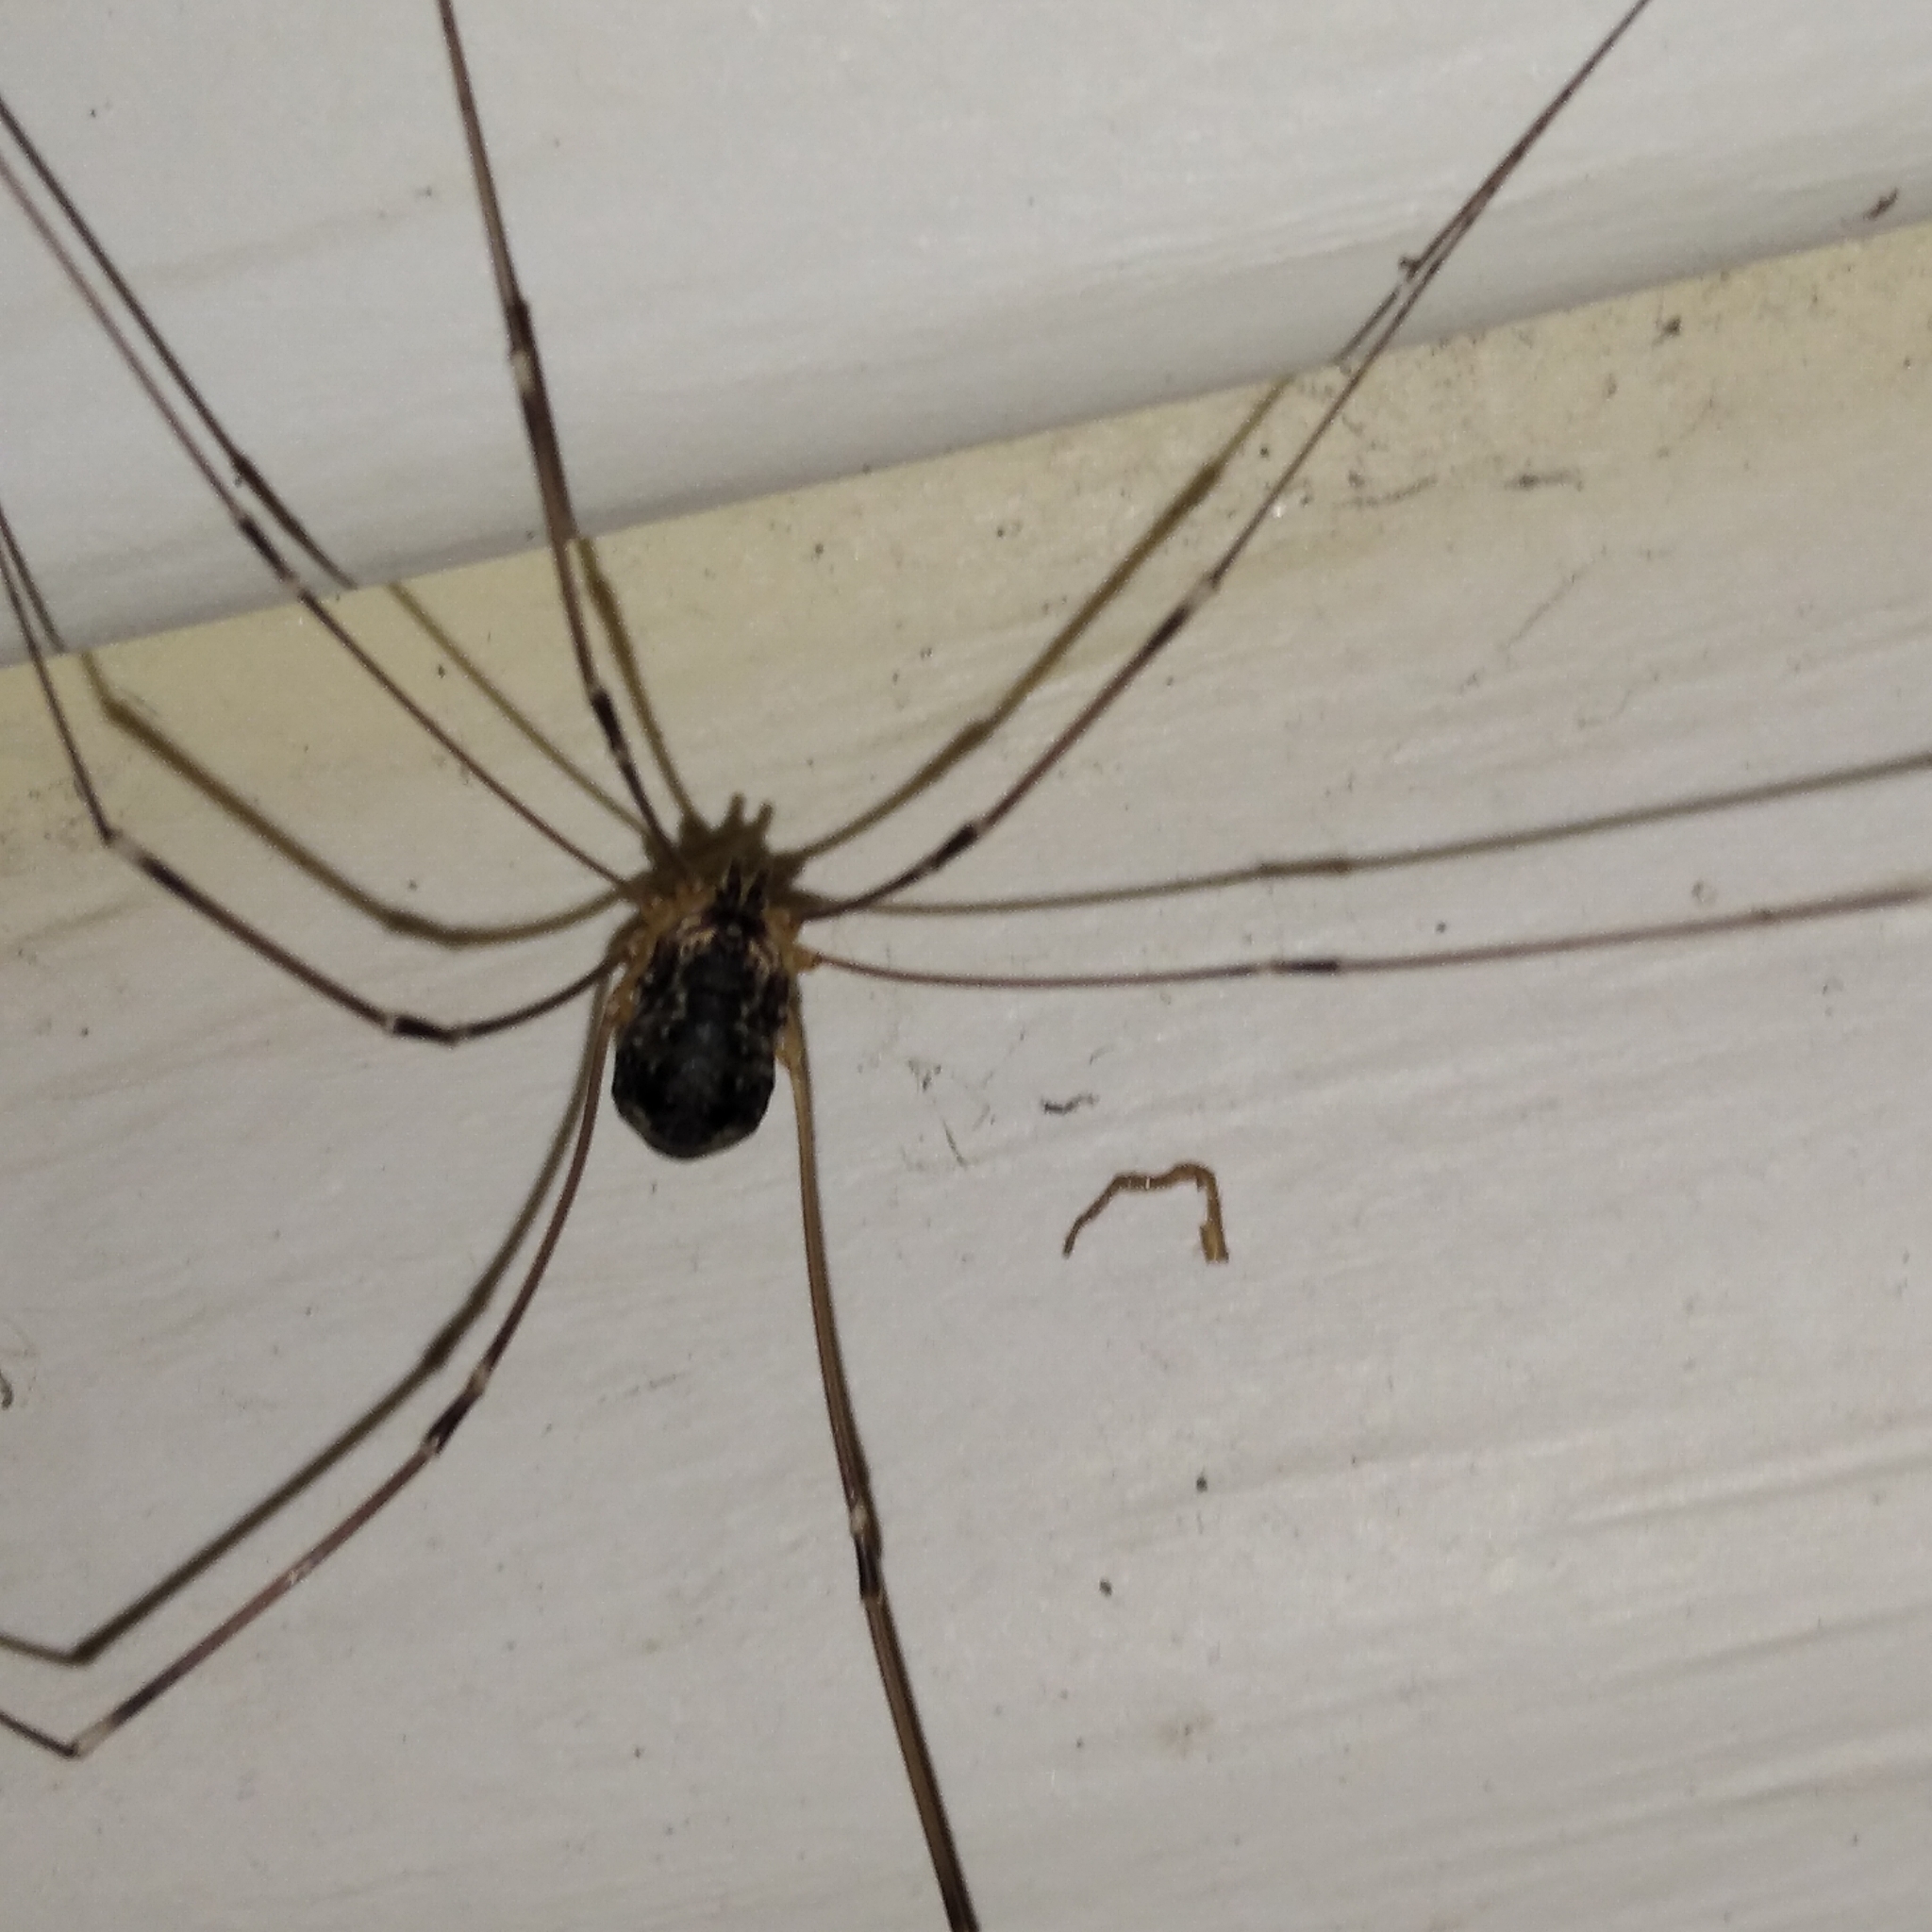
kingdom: Animalia
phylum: Arthropoda
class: Arachnida
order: Opiliones
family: Sclerosomatidae
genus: Leiobunum
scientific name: Leiobunum gracile
